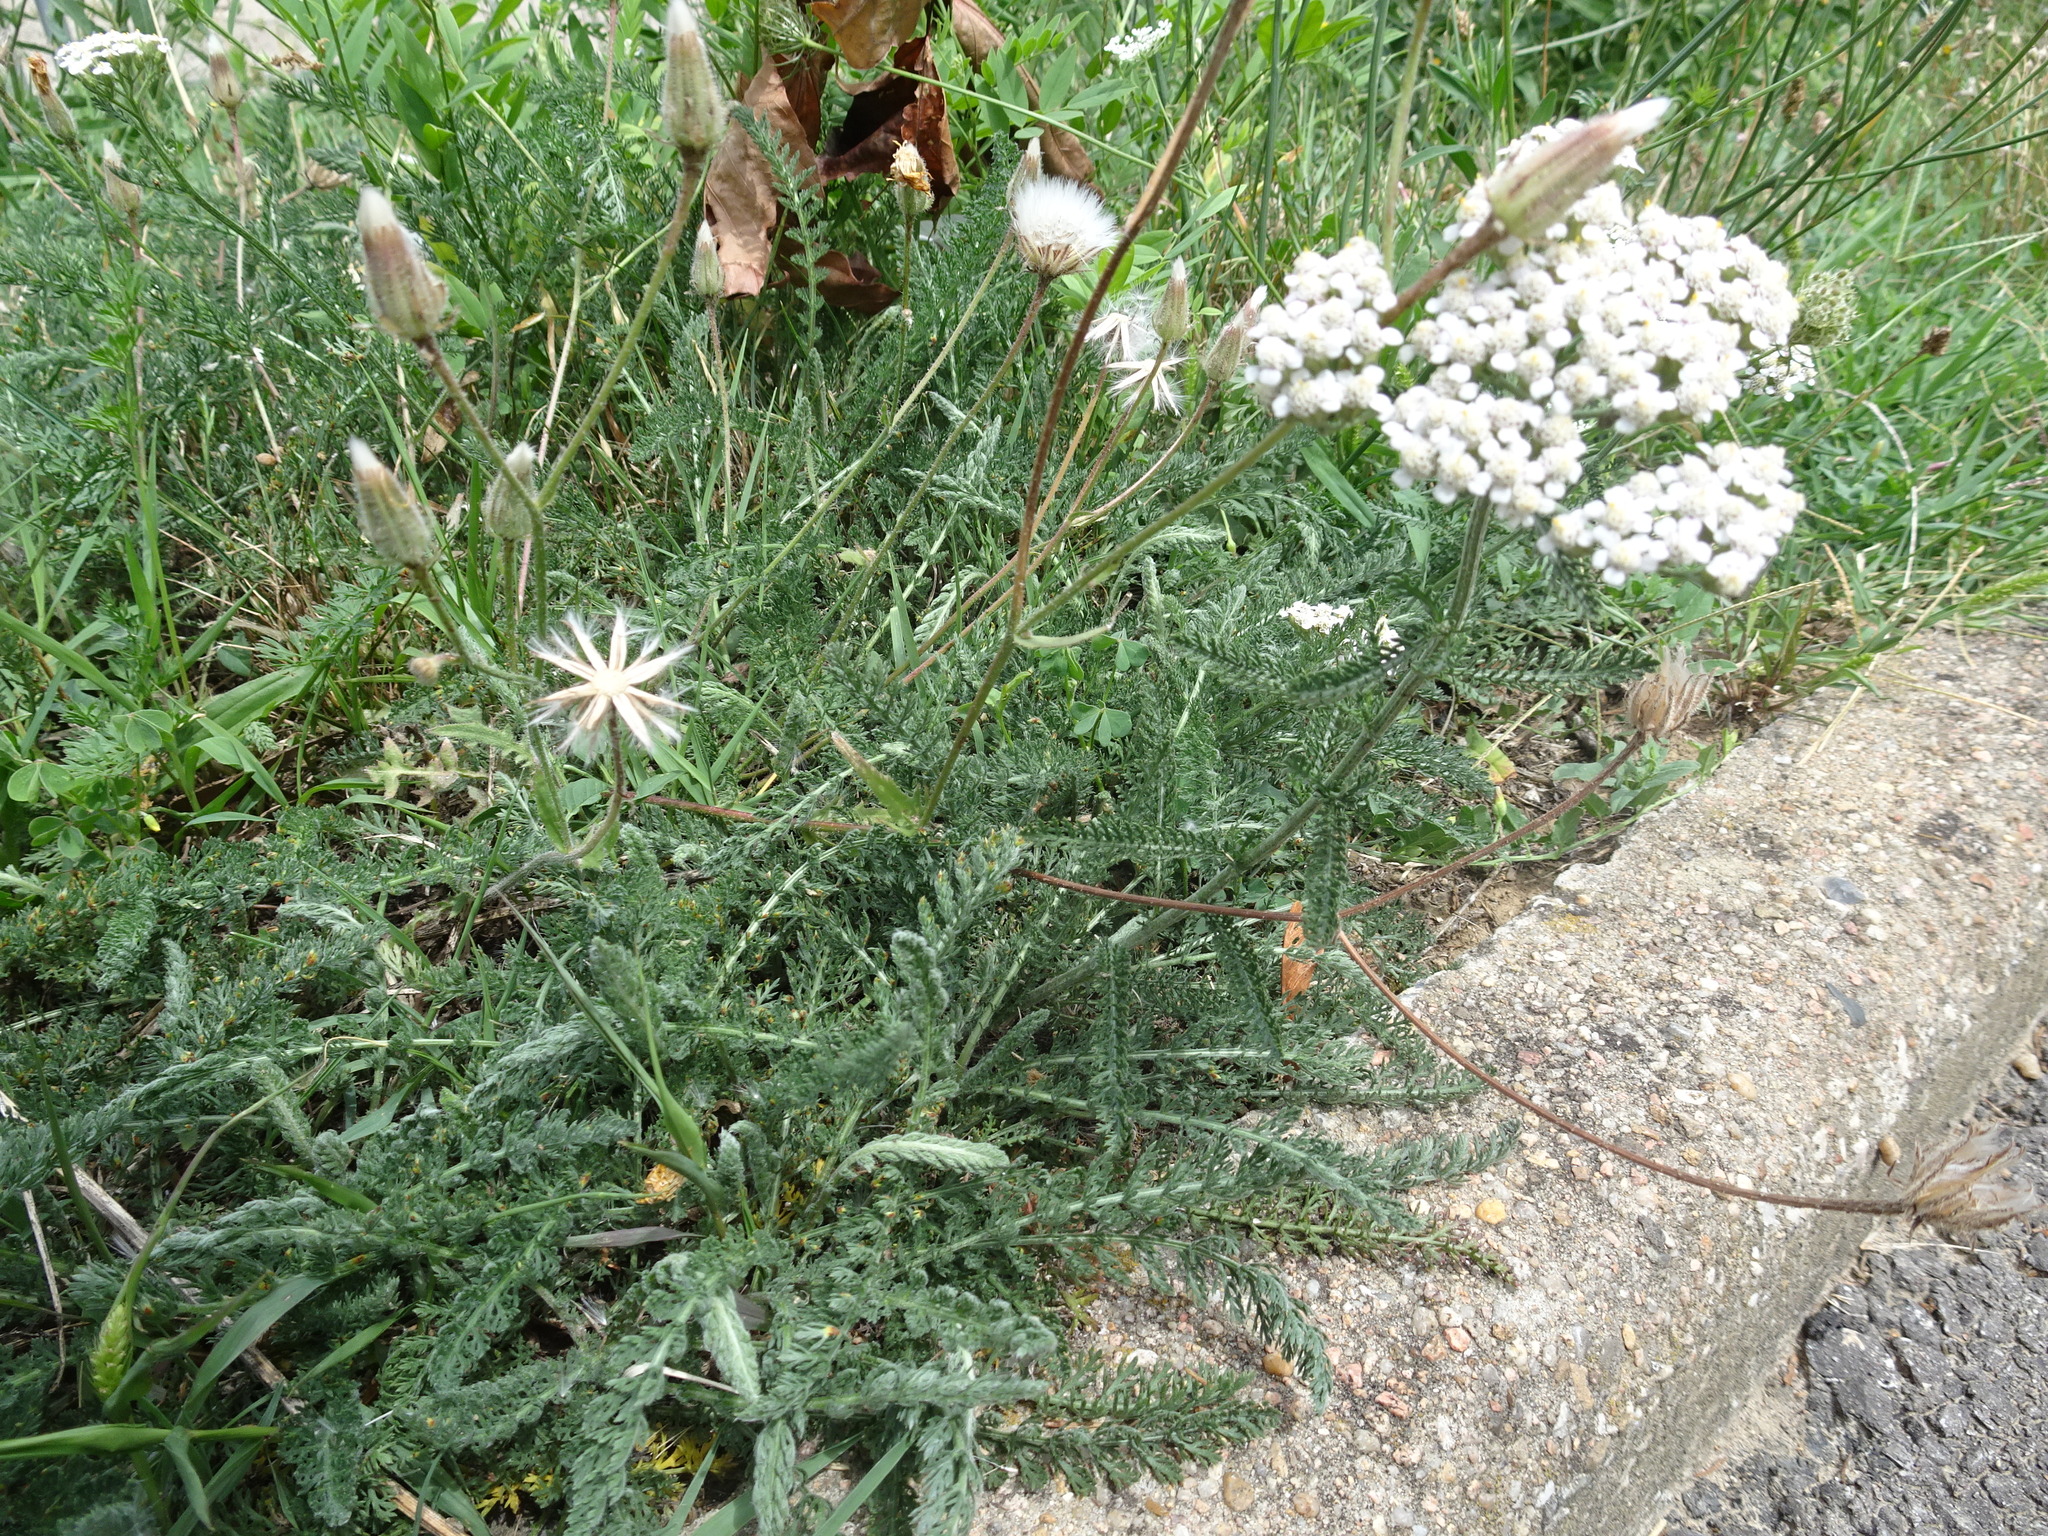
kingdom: Plantae
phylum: Tracheophyta
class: Magnoliopsida
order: Asterales
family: Asteraceae
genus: Achillea
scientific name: Achillea millefolium
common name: Yarrow
